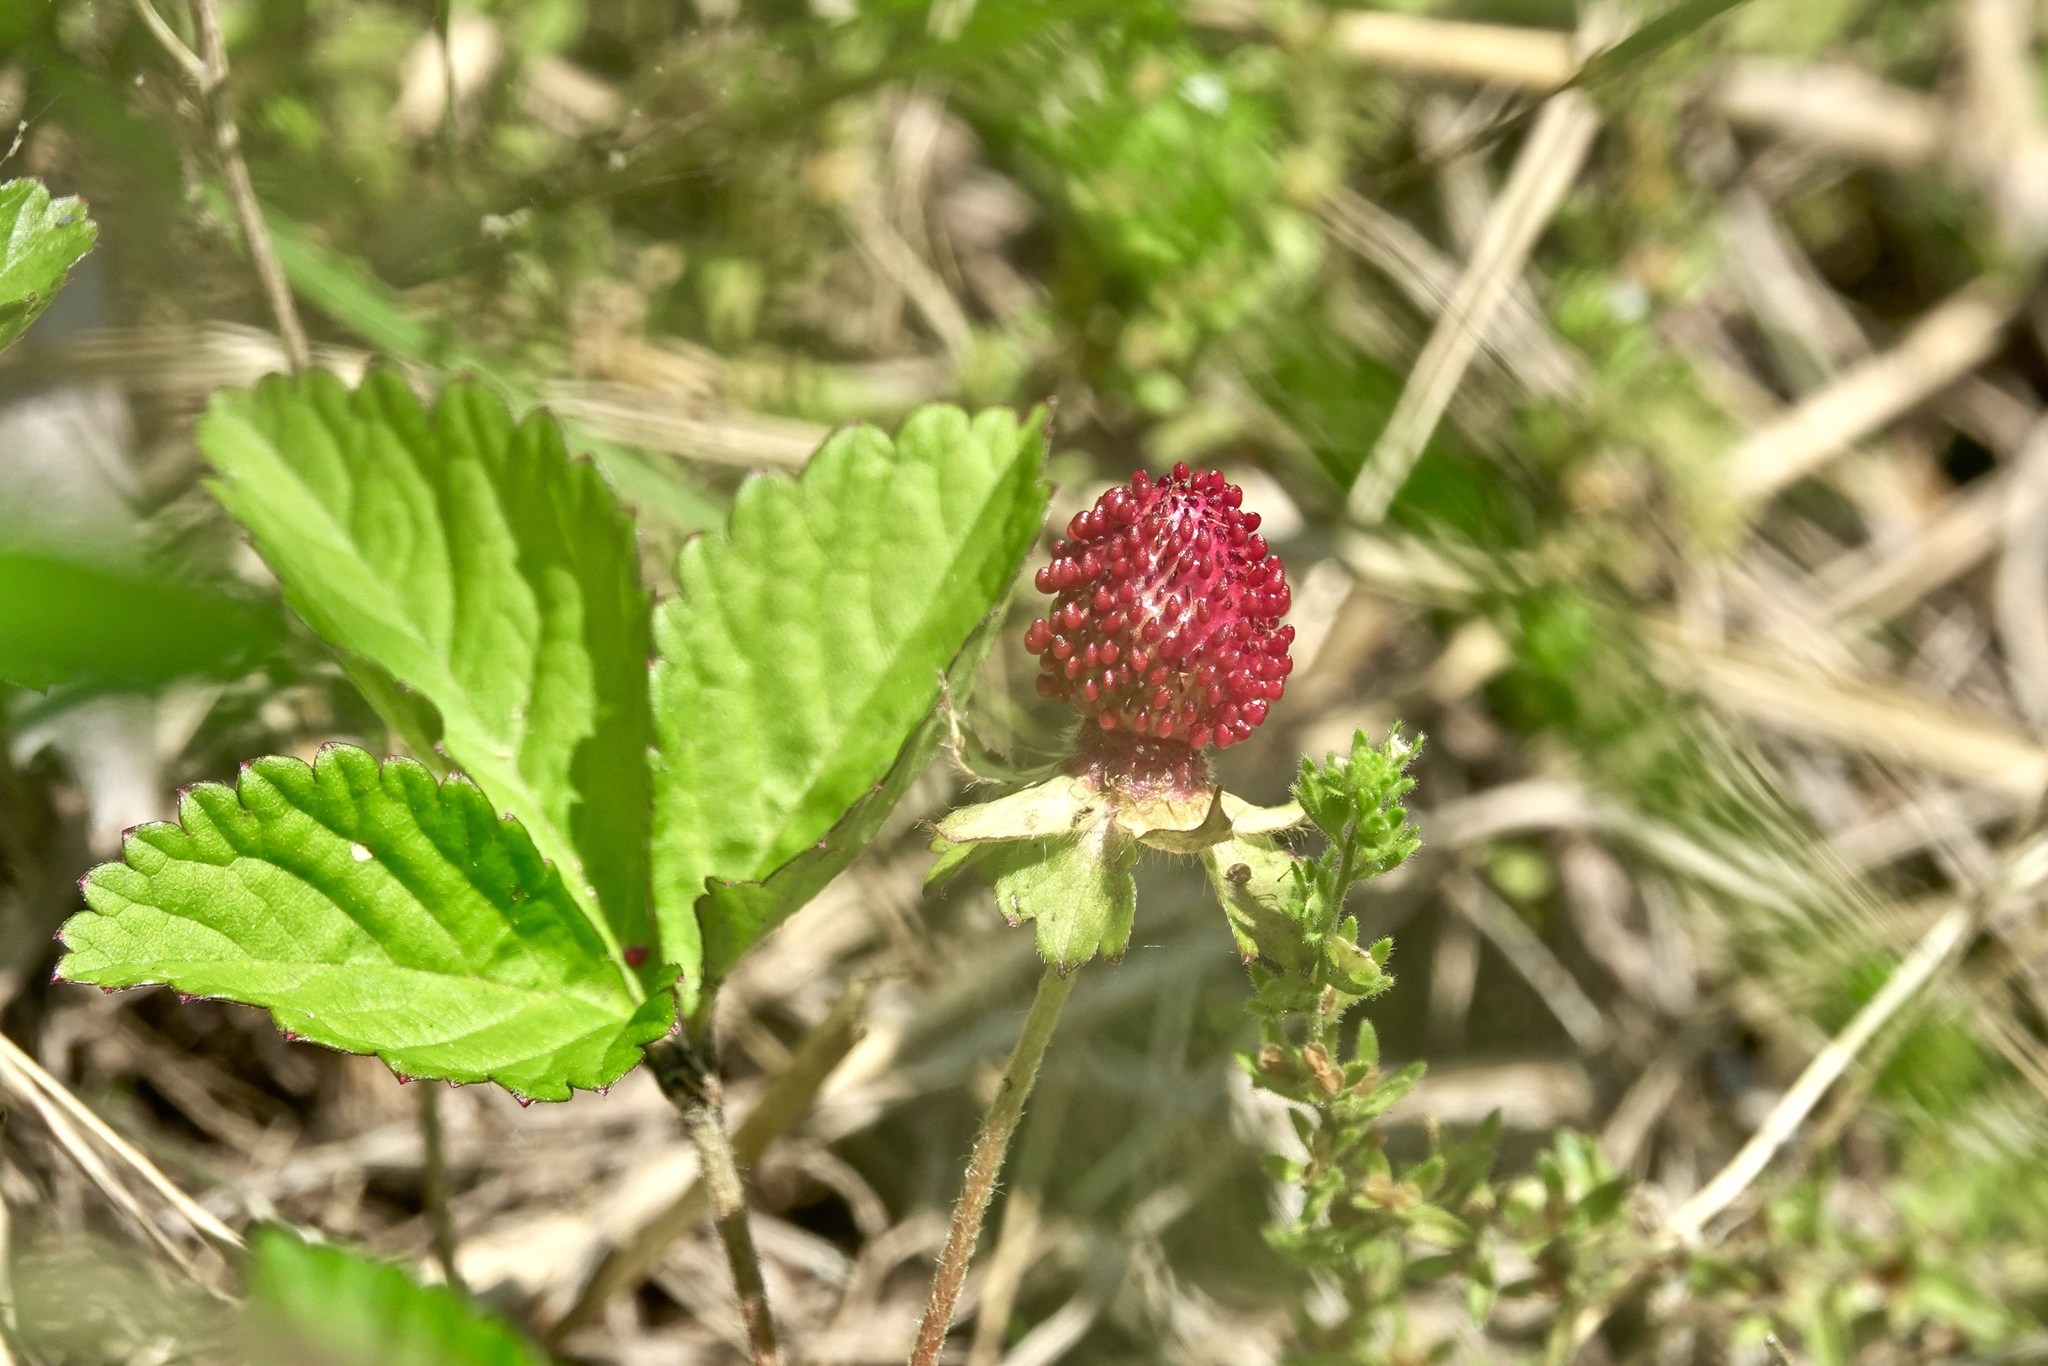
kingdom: Plantae
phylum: Tracheophyta
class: Magnoliopsida
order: Rosales
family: Rosaceae
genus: Potentilla
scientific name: Potentilla indica
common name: Yellow-flowered strawberry
